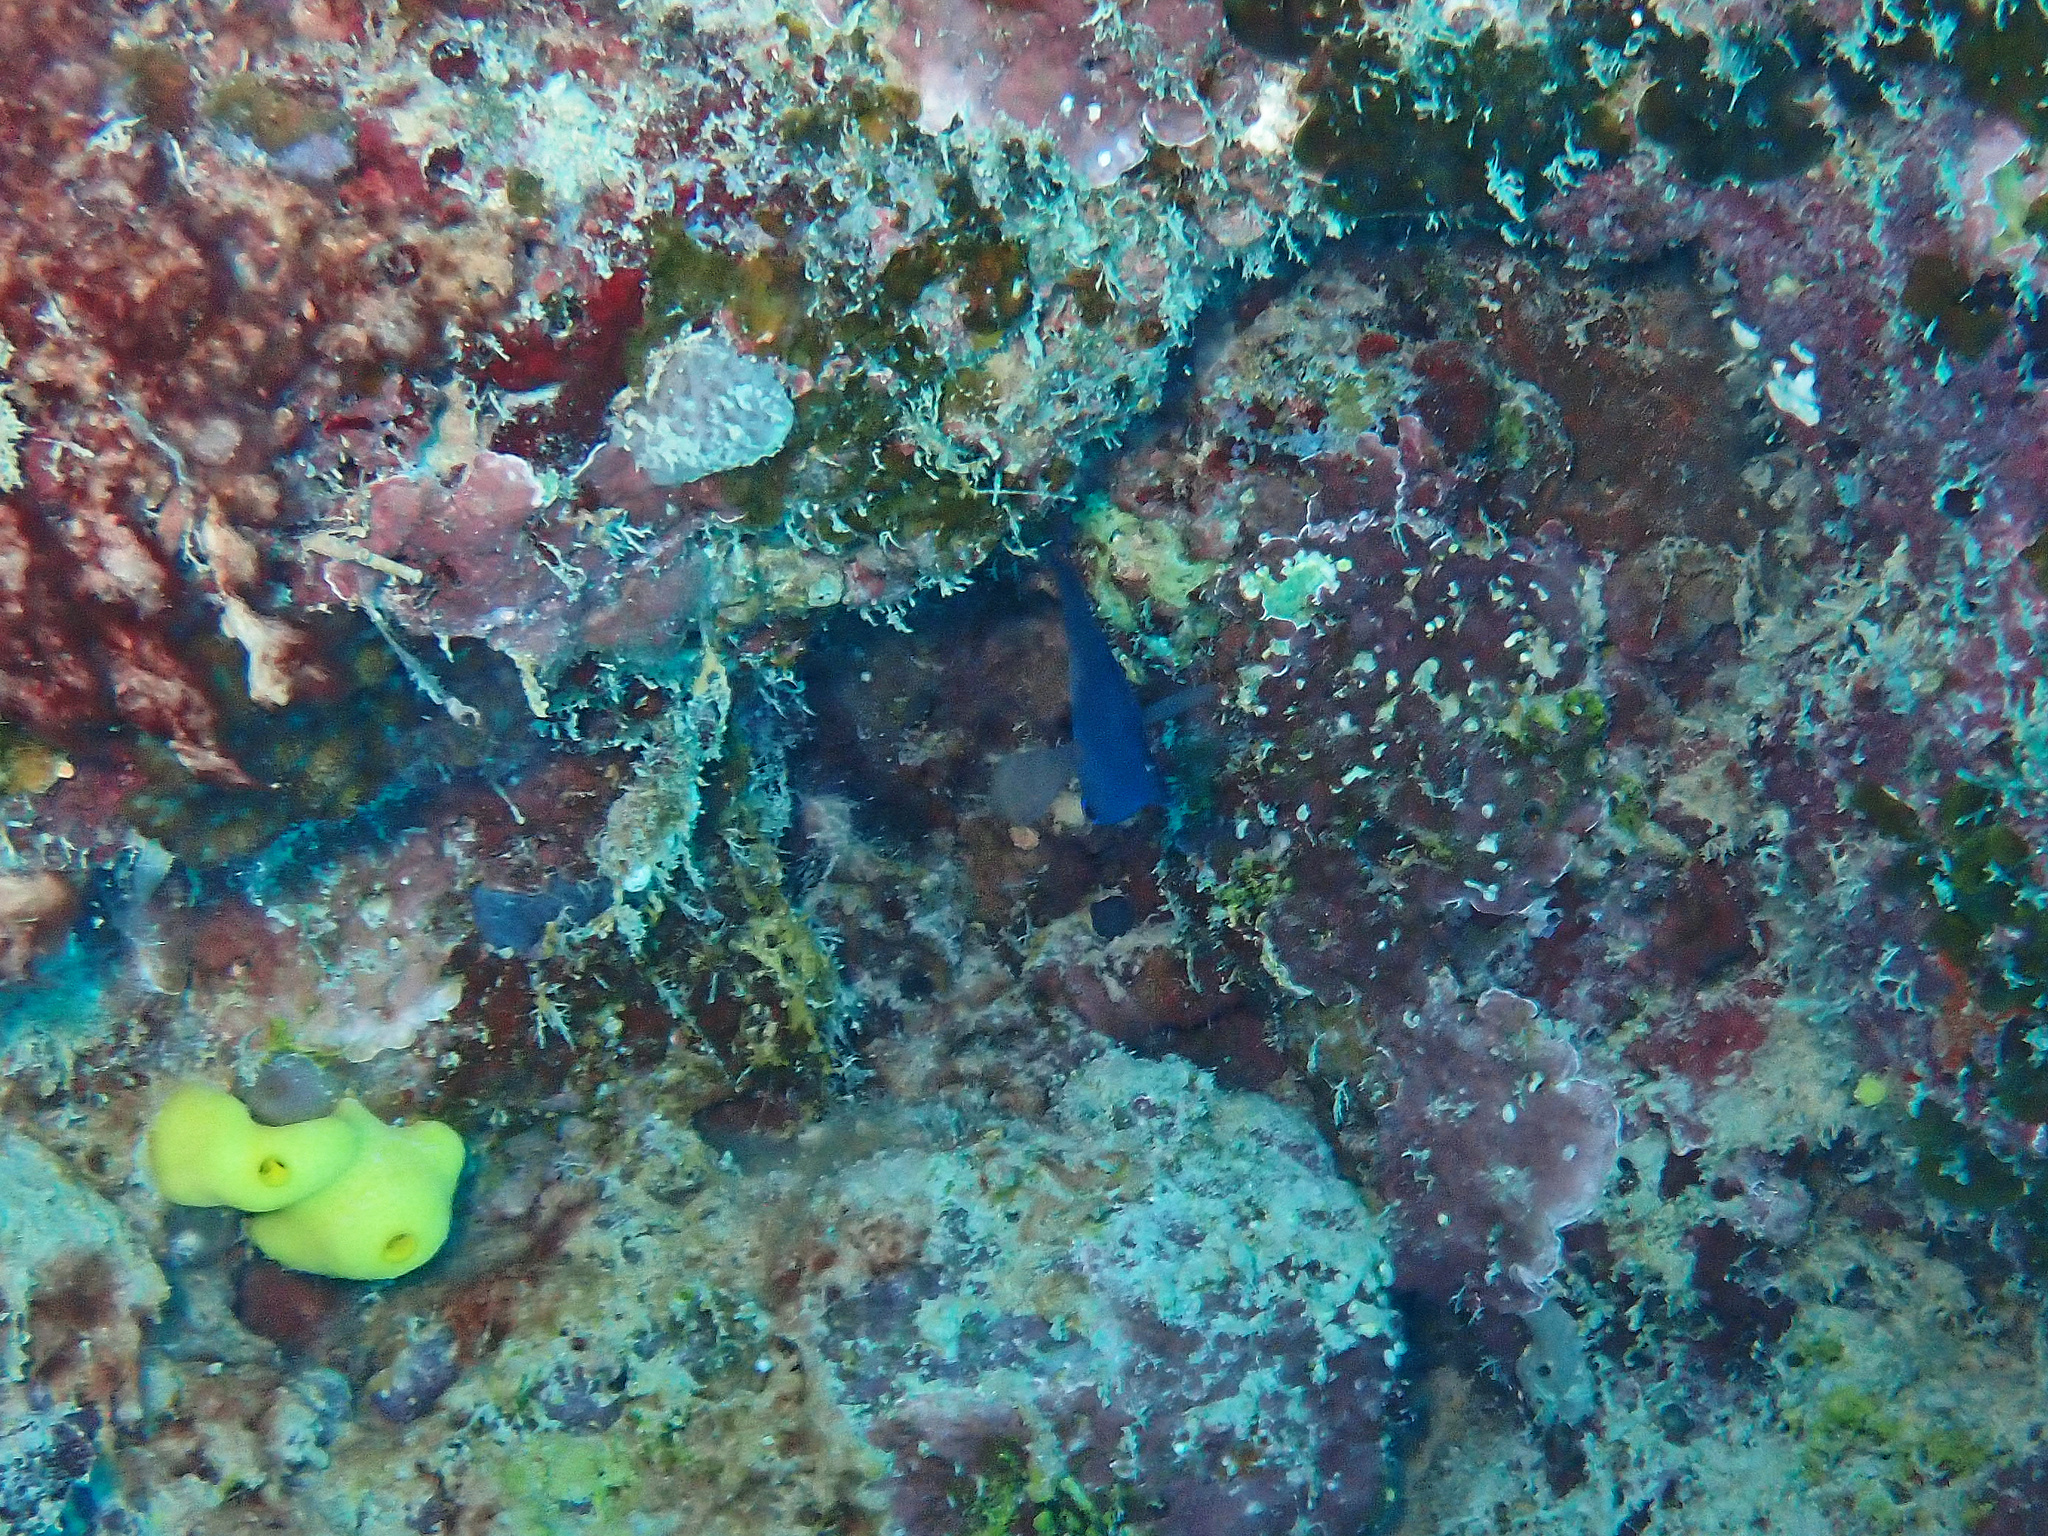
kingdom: Animalia
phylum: Chordata
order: Perciformes
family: Plesiopidae
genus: Assessor
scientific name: Assessor macneilli
